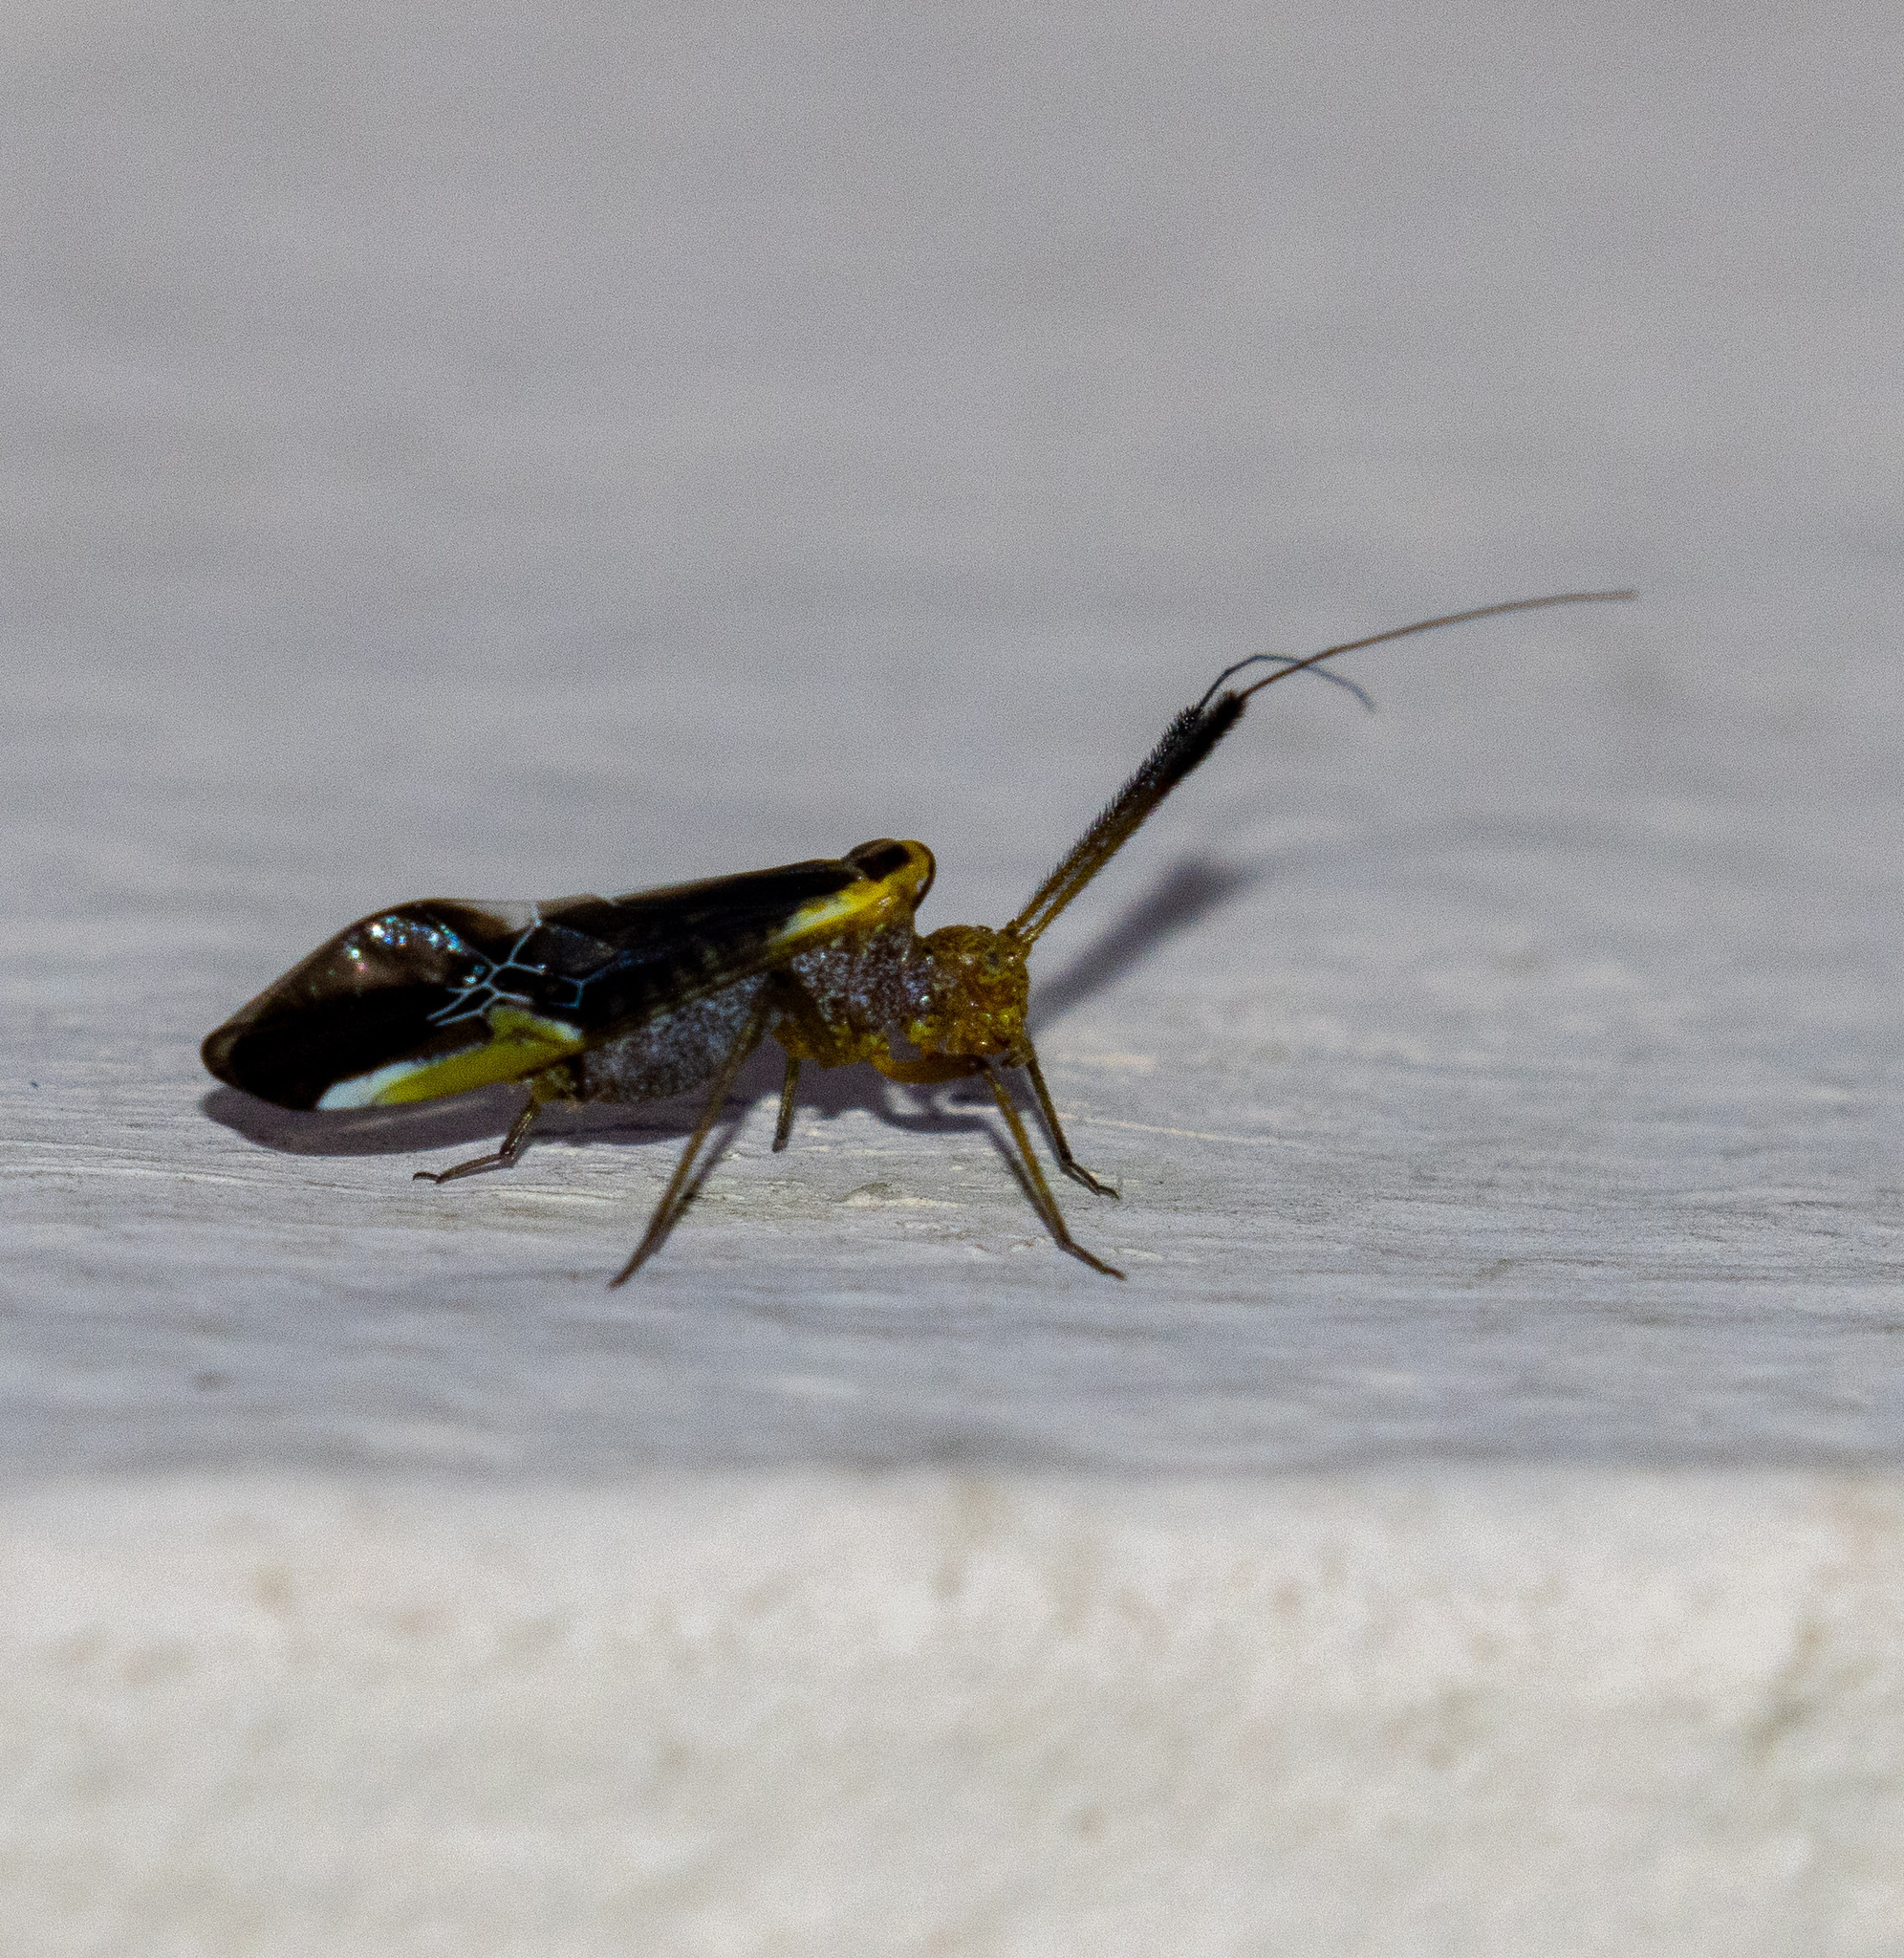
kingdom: Animalia
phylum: Arthropoda
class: Insecta
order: Psocodea
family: Psocidae
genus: Dictyopsocus
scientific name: Dictyopsocus pennicornis
